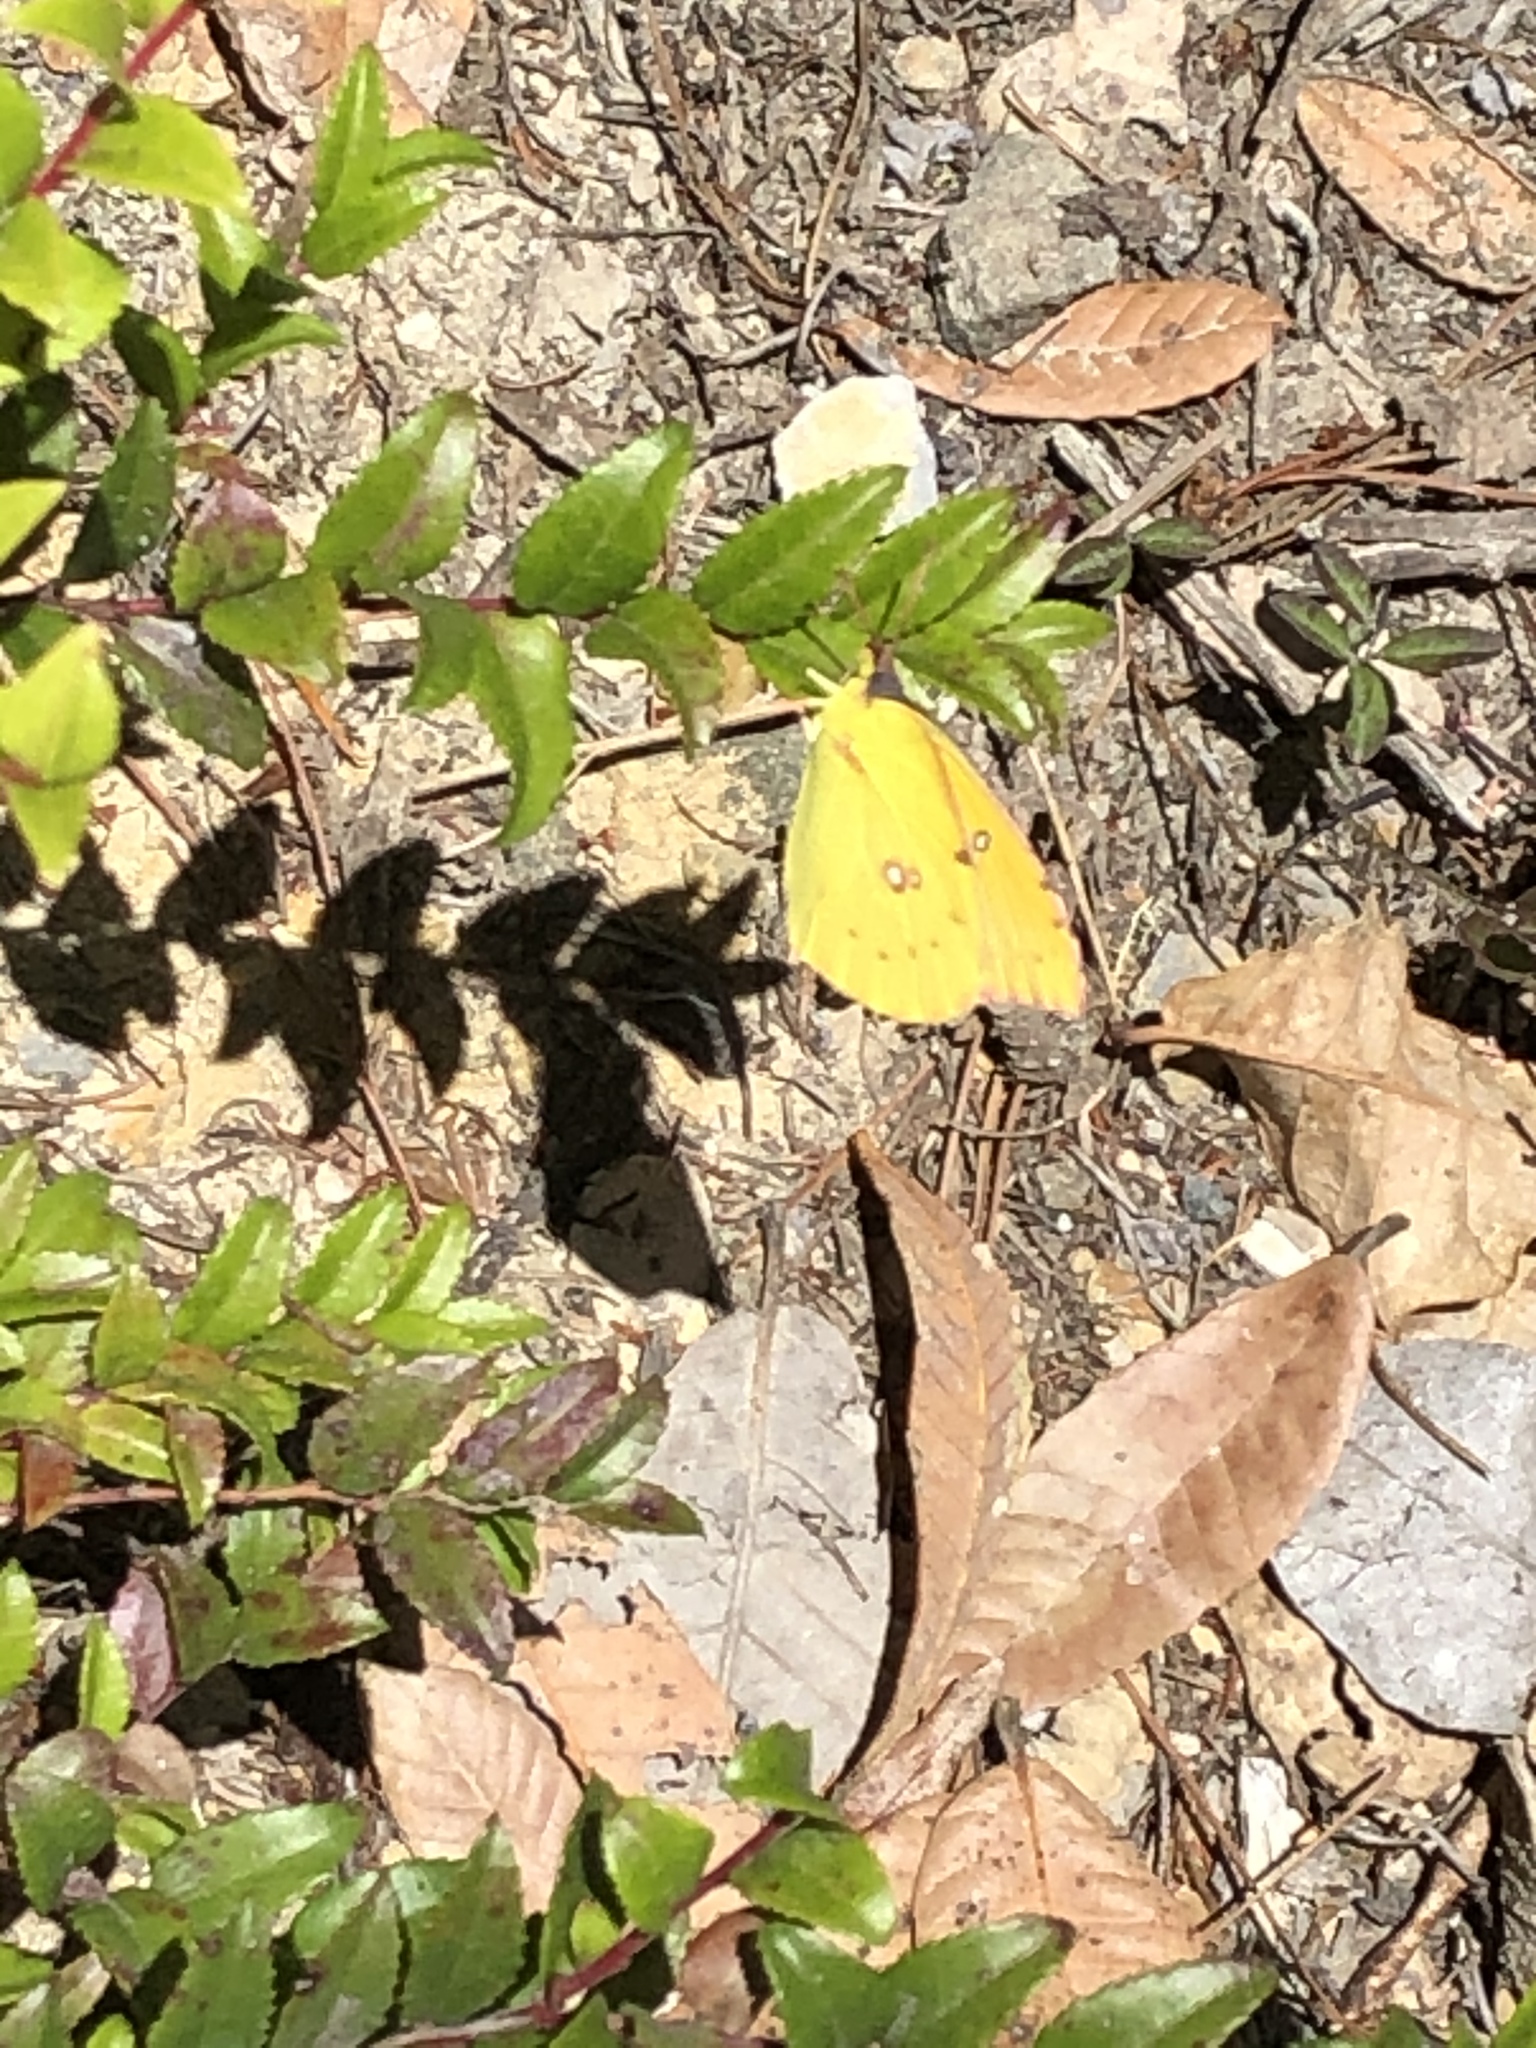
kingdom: Animalia
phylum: Arthropoda
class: Insecta
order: Lepidoptera
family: Pieridae
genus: Zerene
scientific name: Zerene eurydice
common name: California dogface
